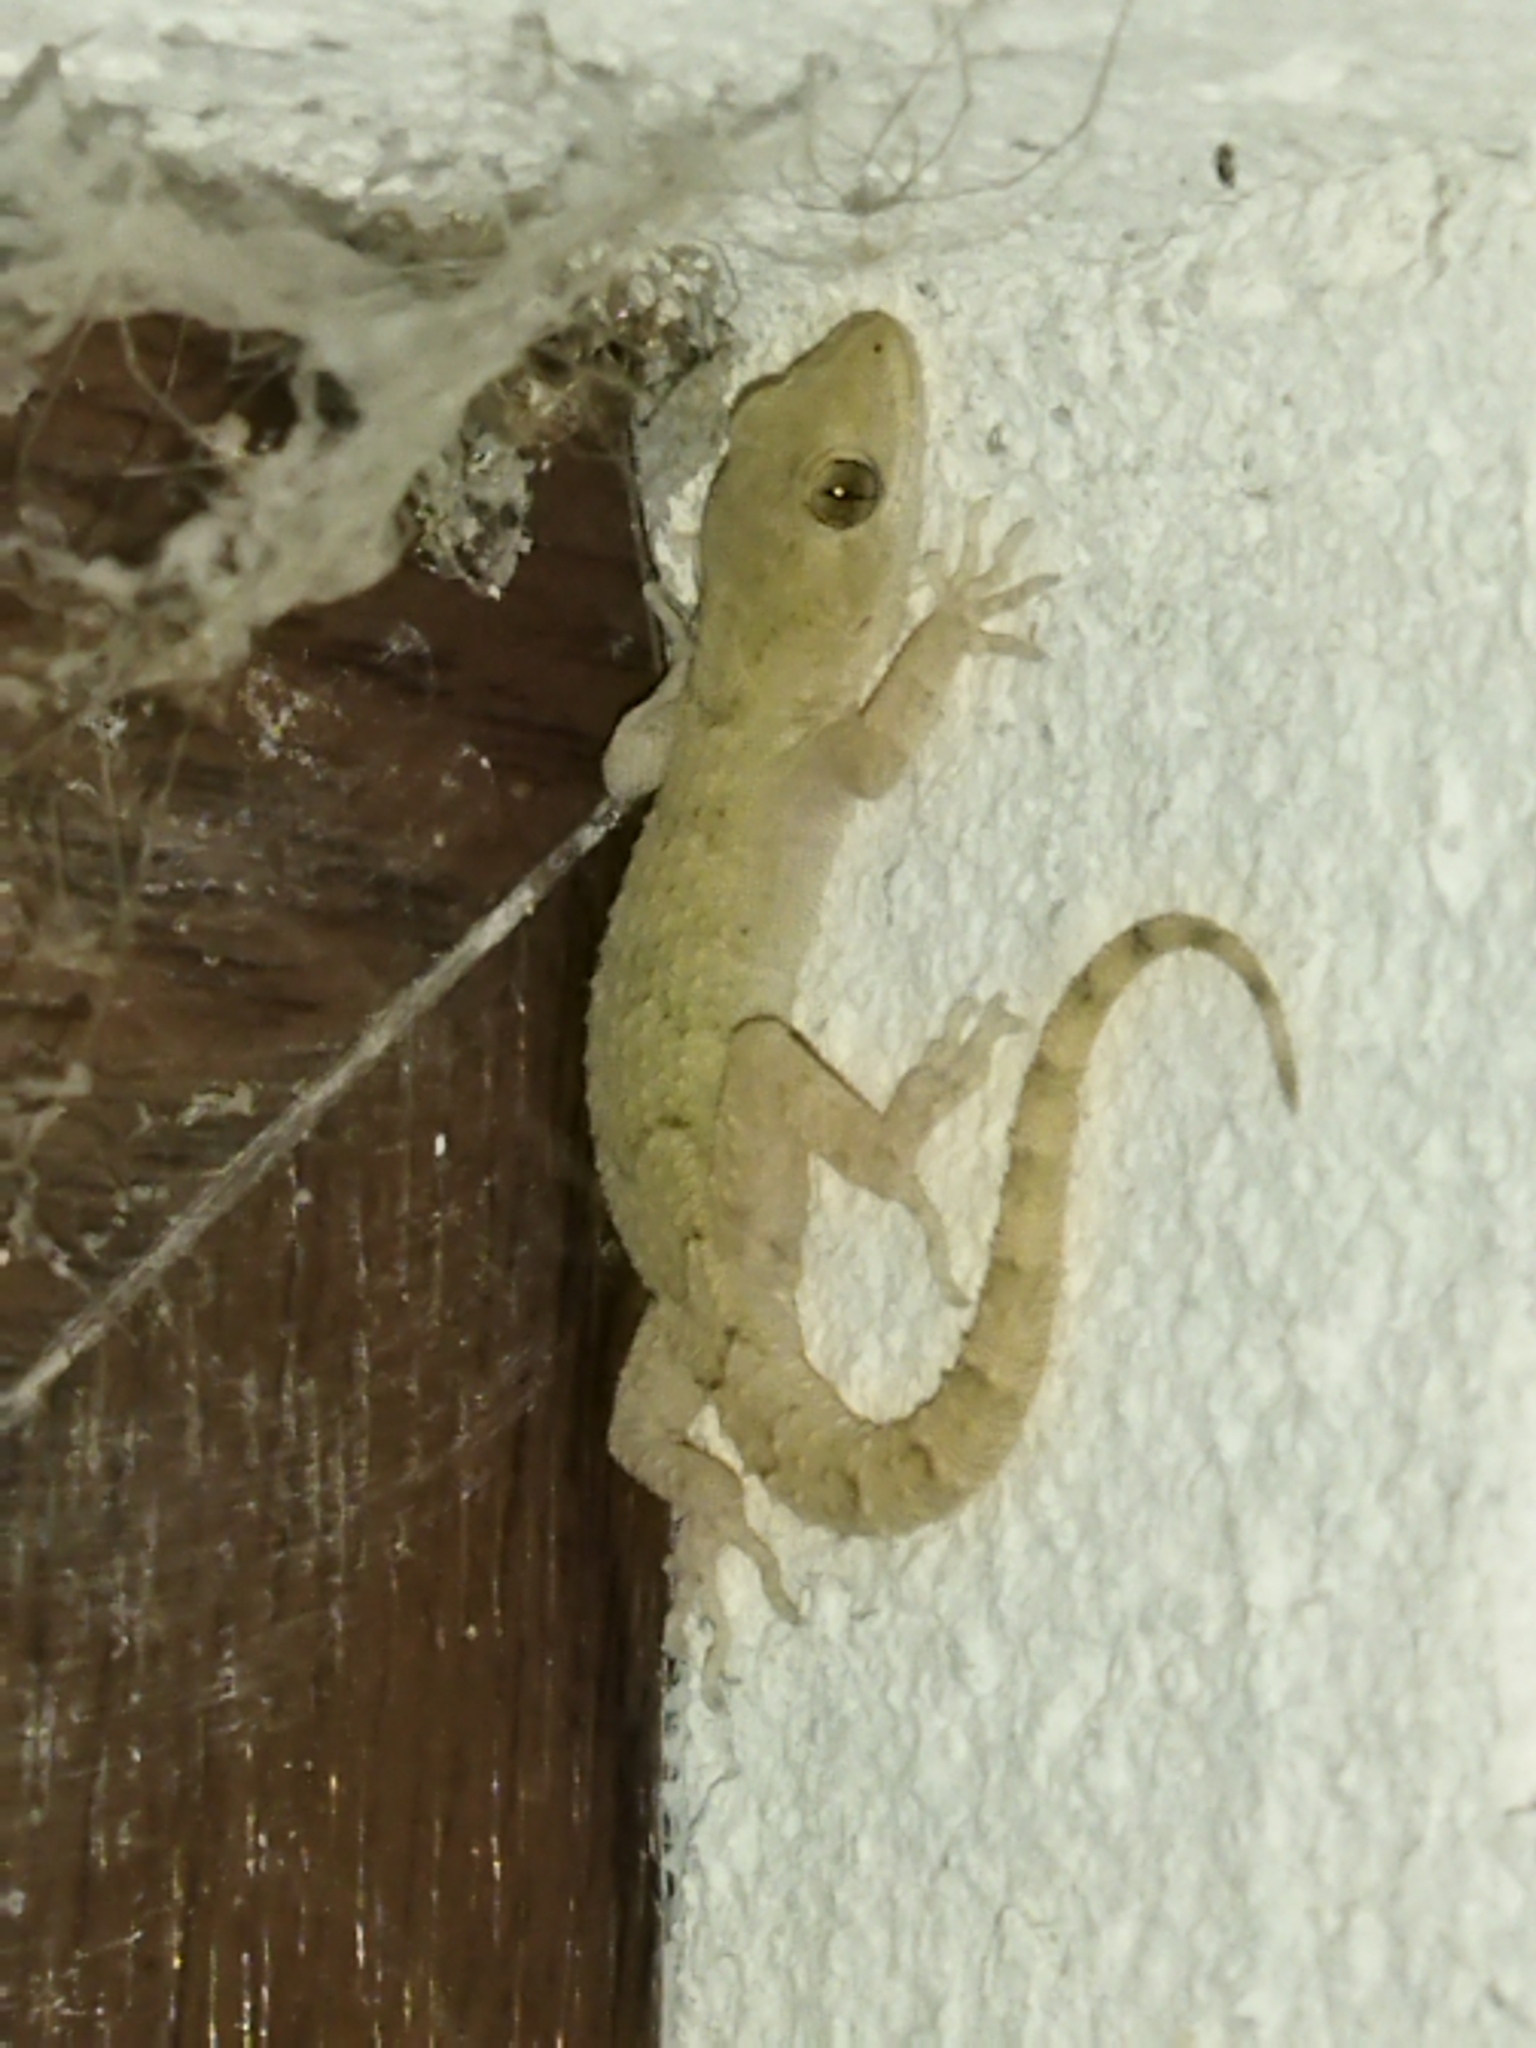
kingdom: Animalia
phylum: Chordata
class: Squamata
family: Gekkonidae
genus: Mediodactylus
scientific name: Mediodactylus kotschyi
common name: Kotschy's gecko
